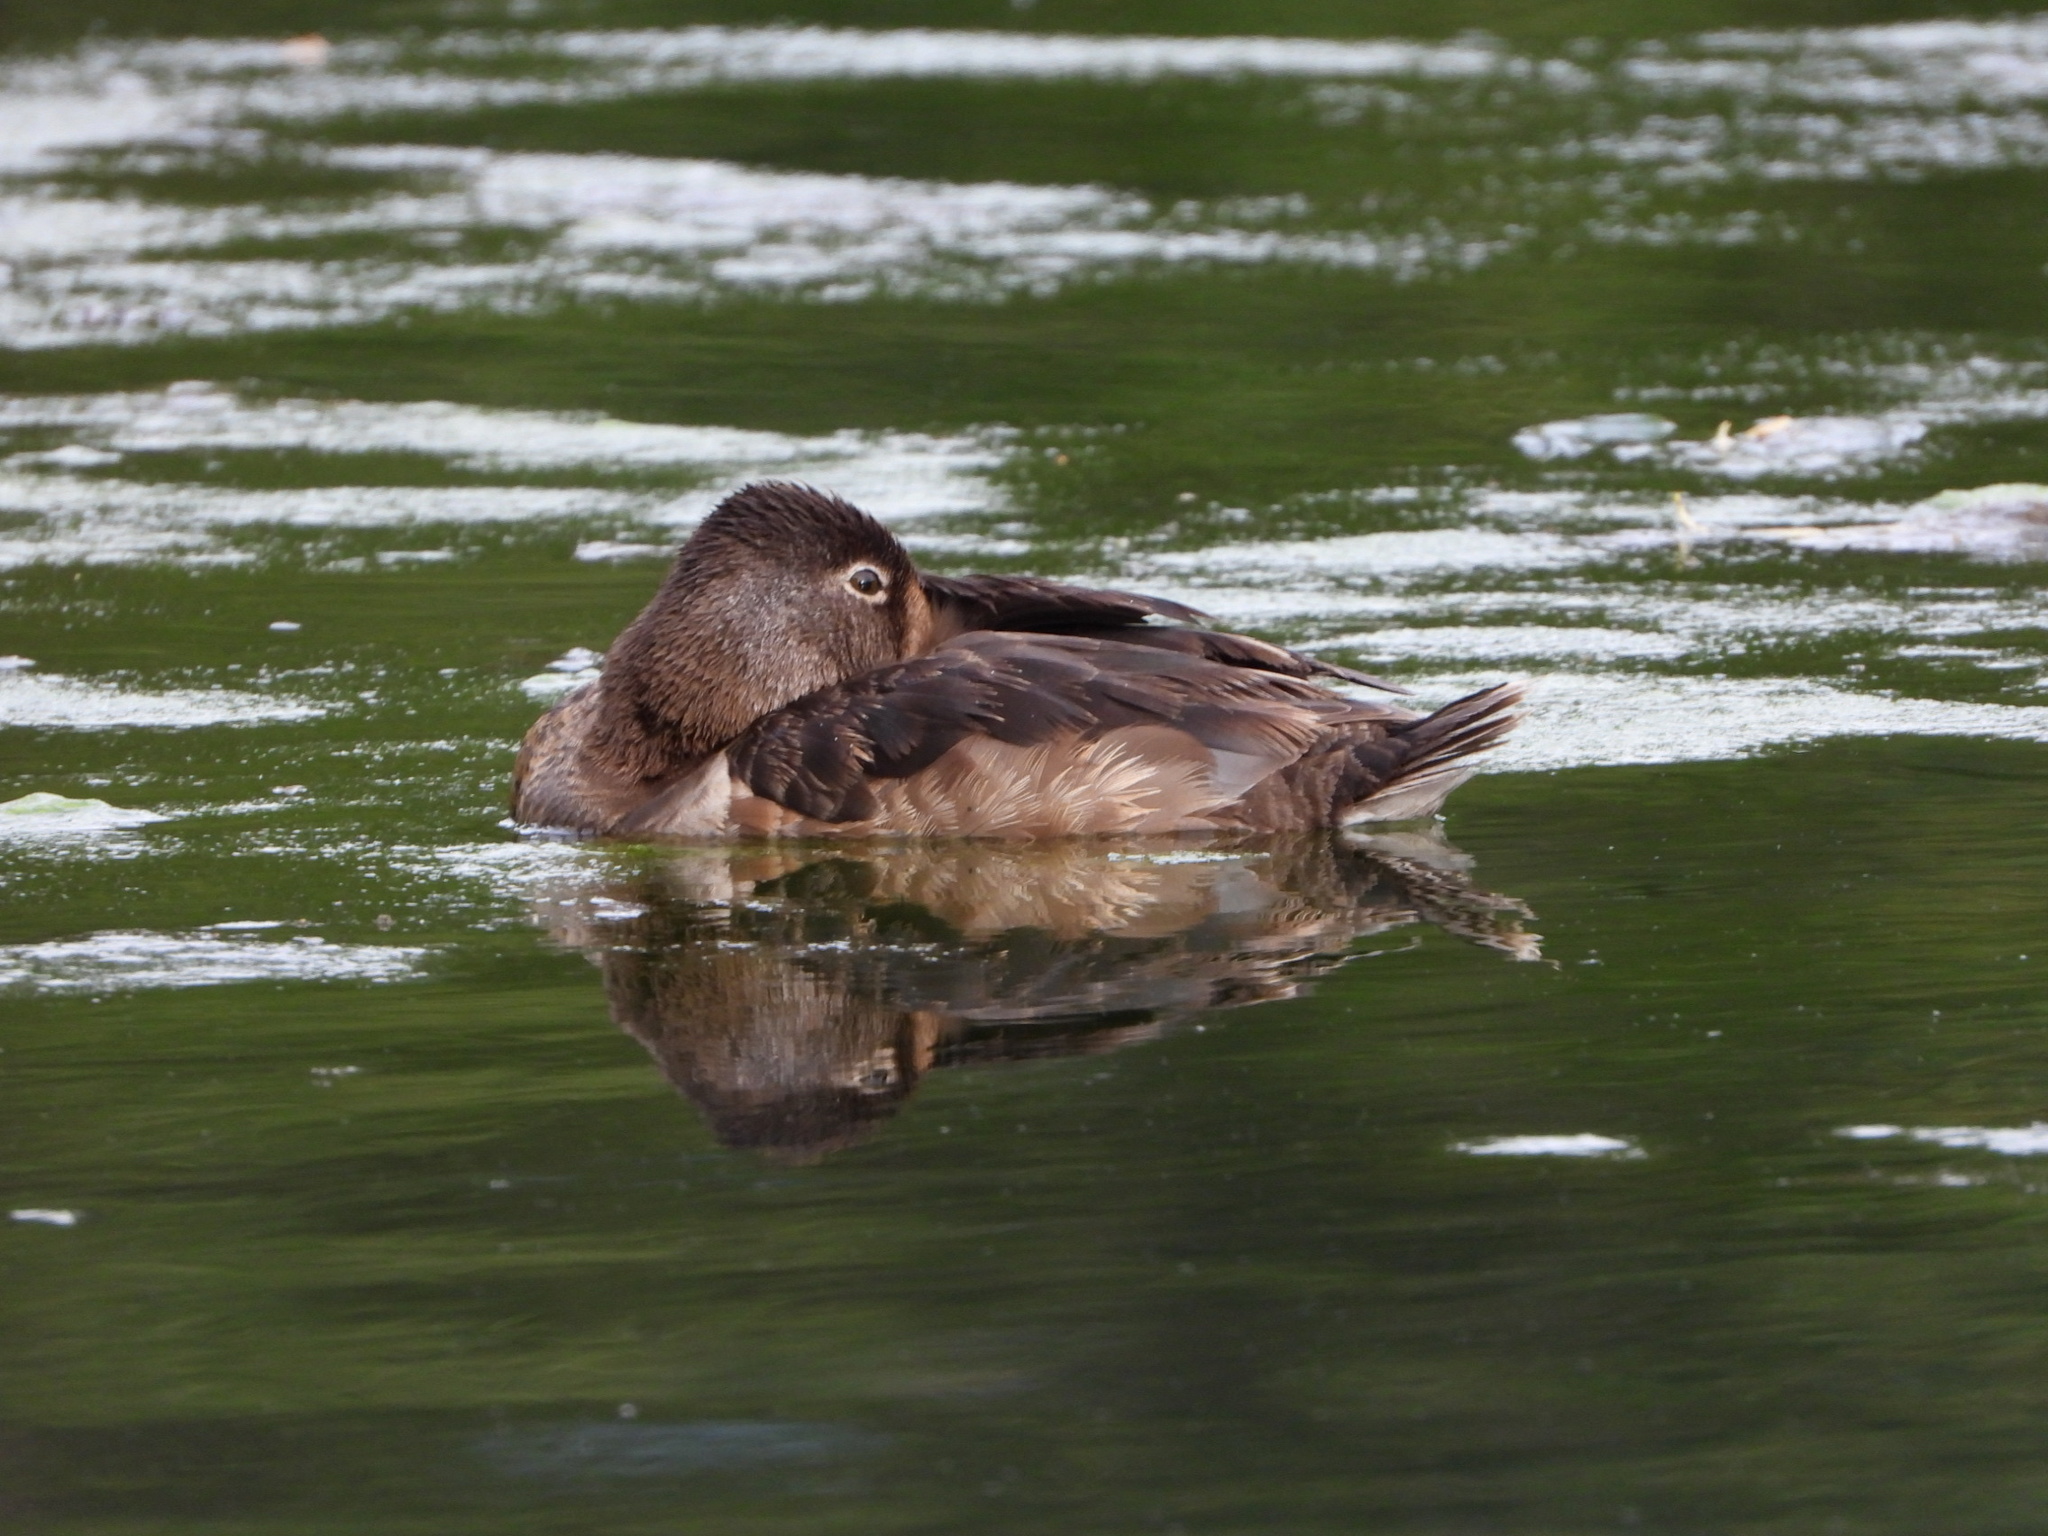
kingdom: Animalia
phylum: Chordata
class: Aves
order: Anseriformes
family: Anatidae
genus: Aythya
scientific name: Aythya collaris
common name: Ring-necked duck
